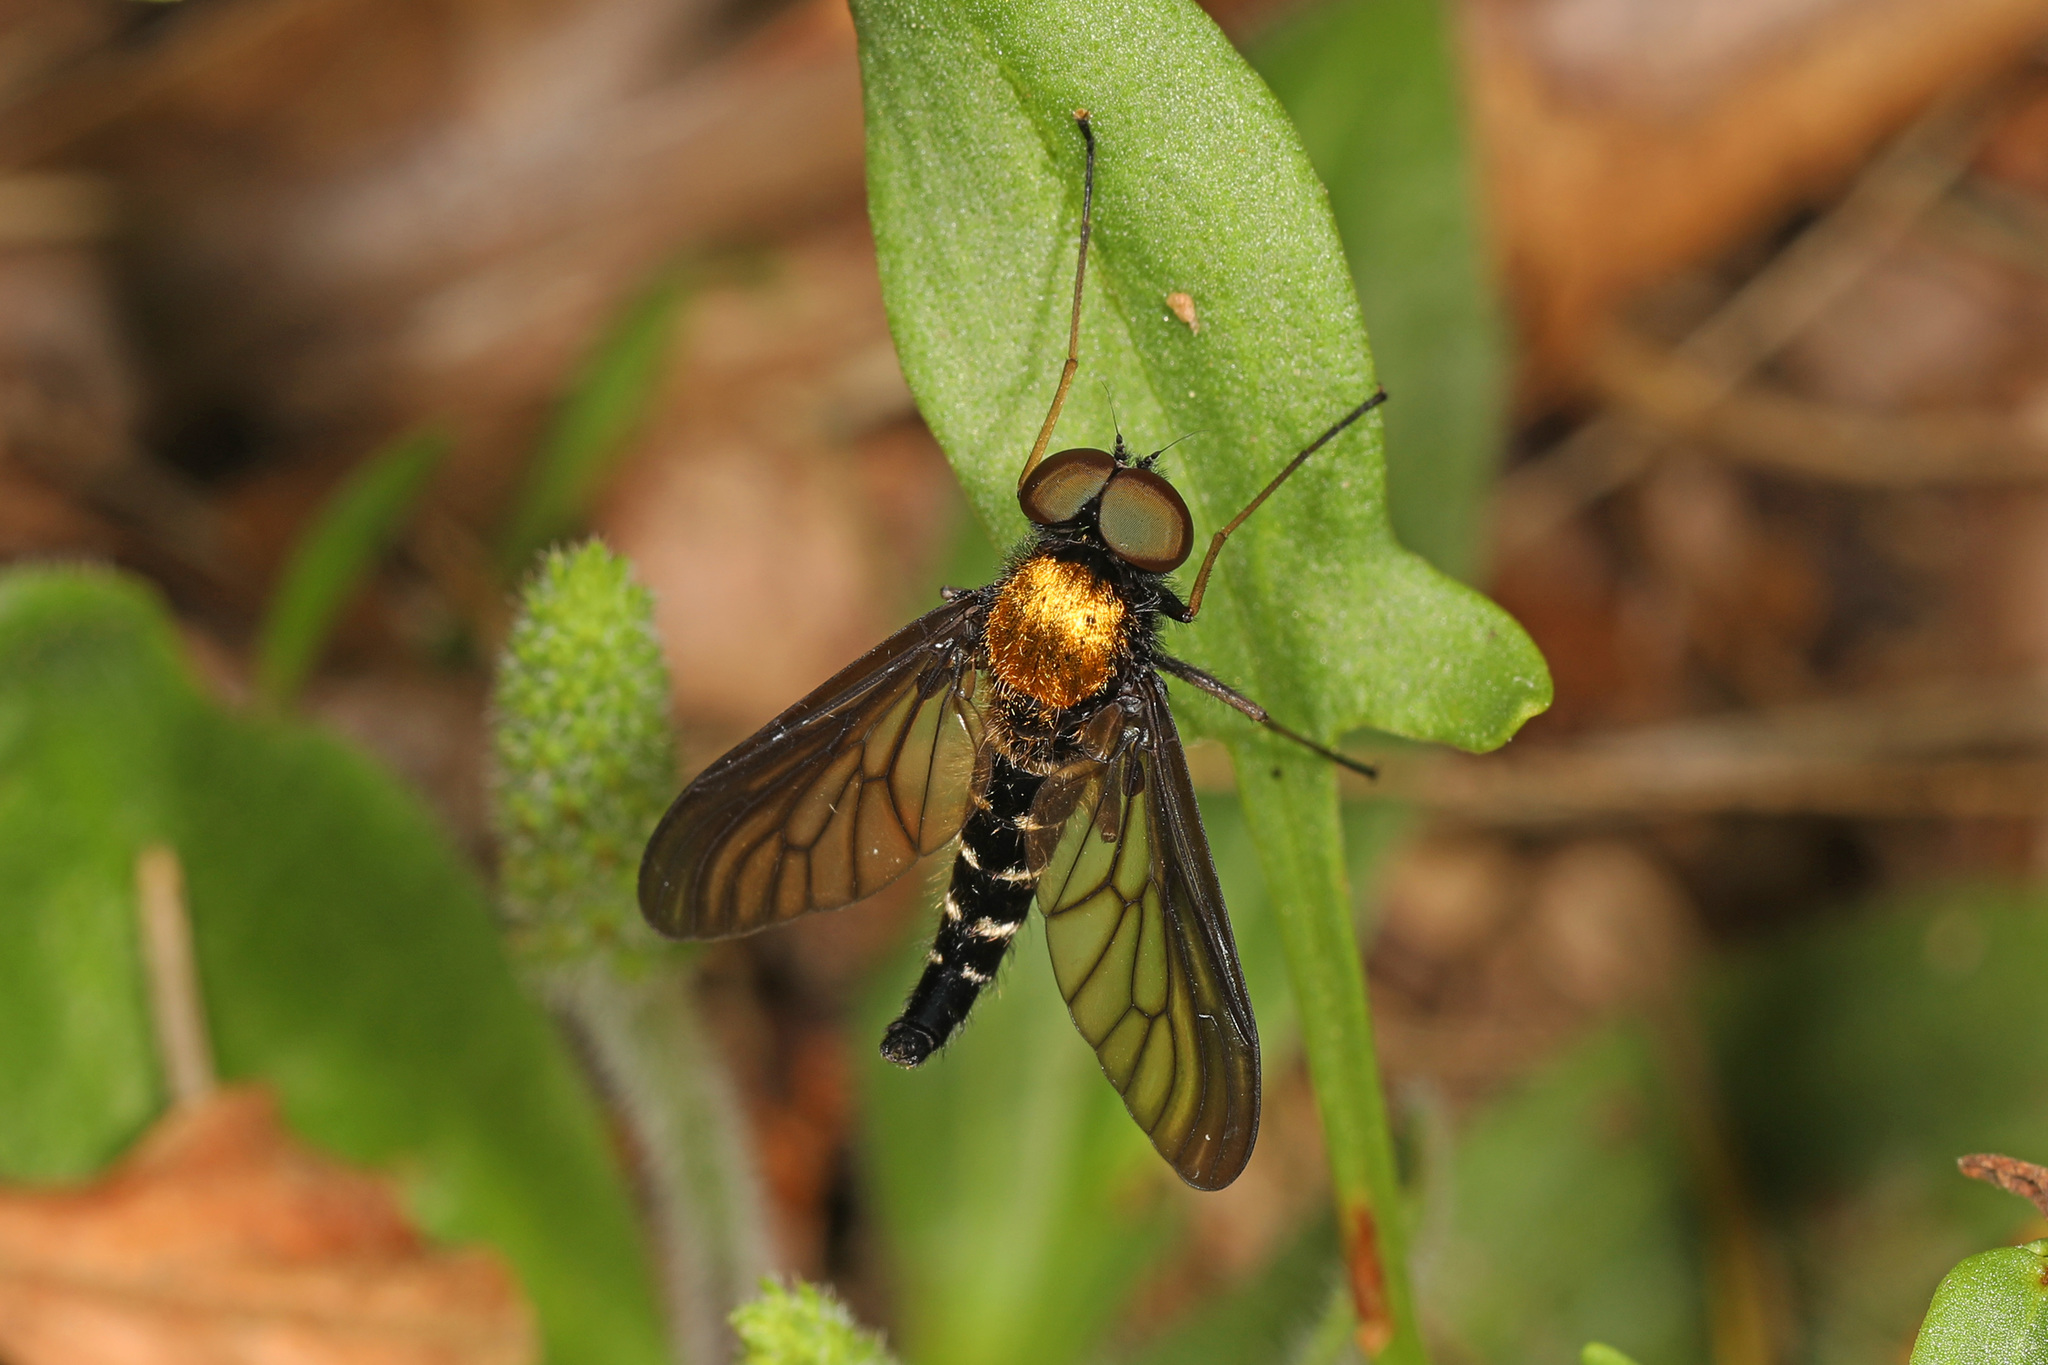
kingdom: Animalia
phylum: Arthropoda
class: Insecta
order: Diptera
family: Rhagionidae
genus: Chrysopilus
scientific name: Chrysopilus thoracicus
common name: Golden-backed snipe fly
